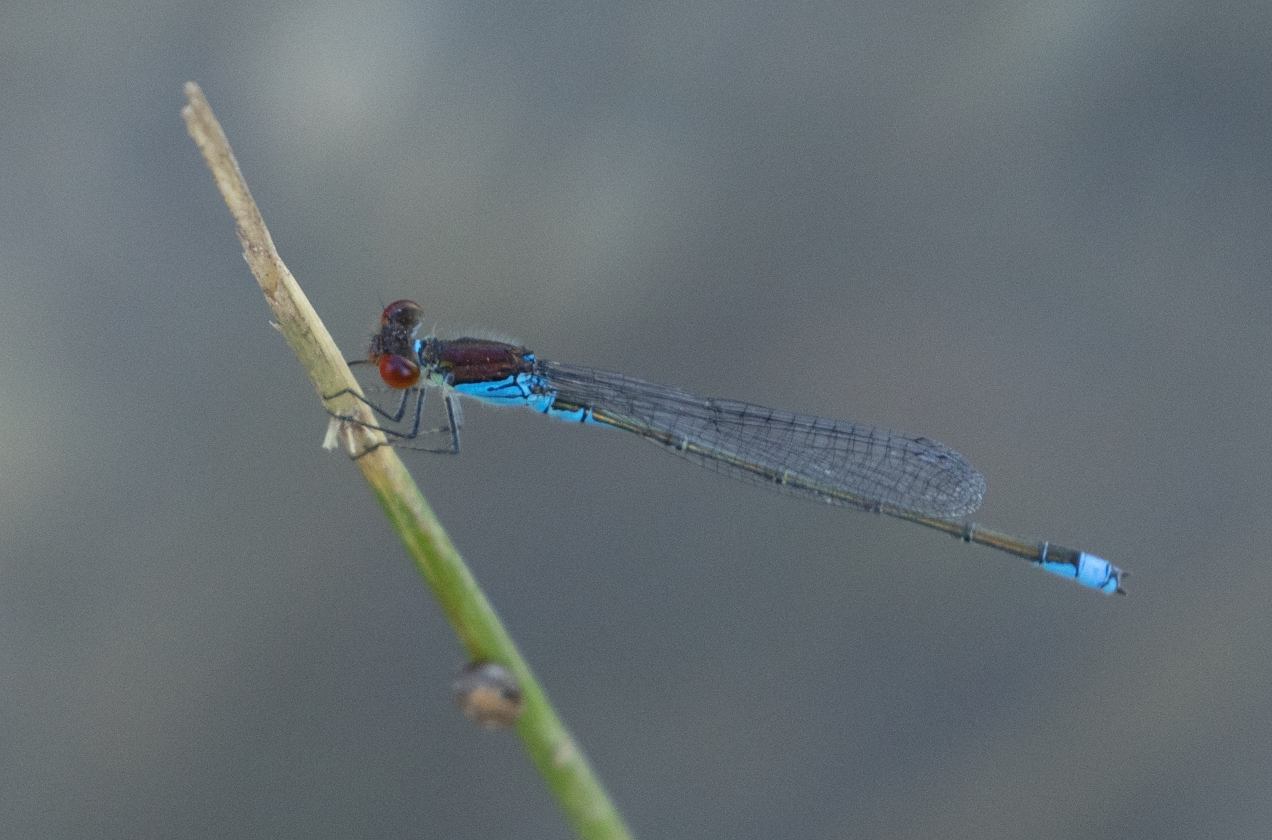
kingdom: Animalia
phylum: Arthropoda
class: Insecta
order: Odonata
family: Coenagrionidae
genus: Erythromma
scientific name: Erythromma viridulum
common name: Small red-eyed damselfly
